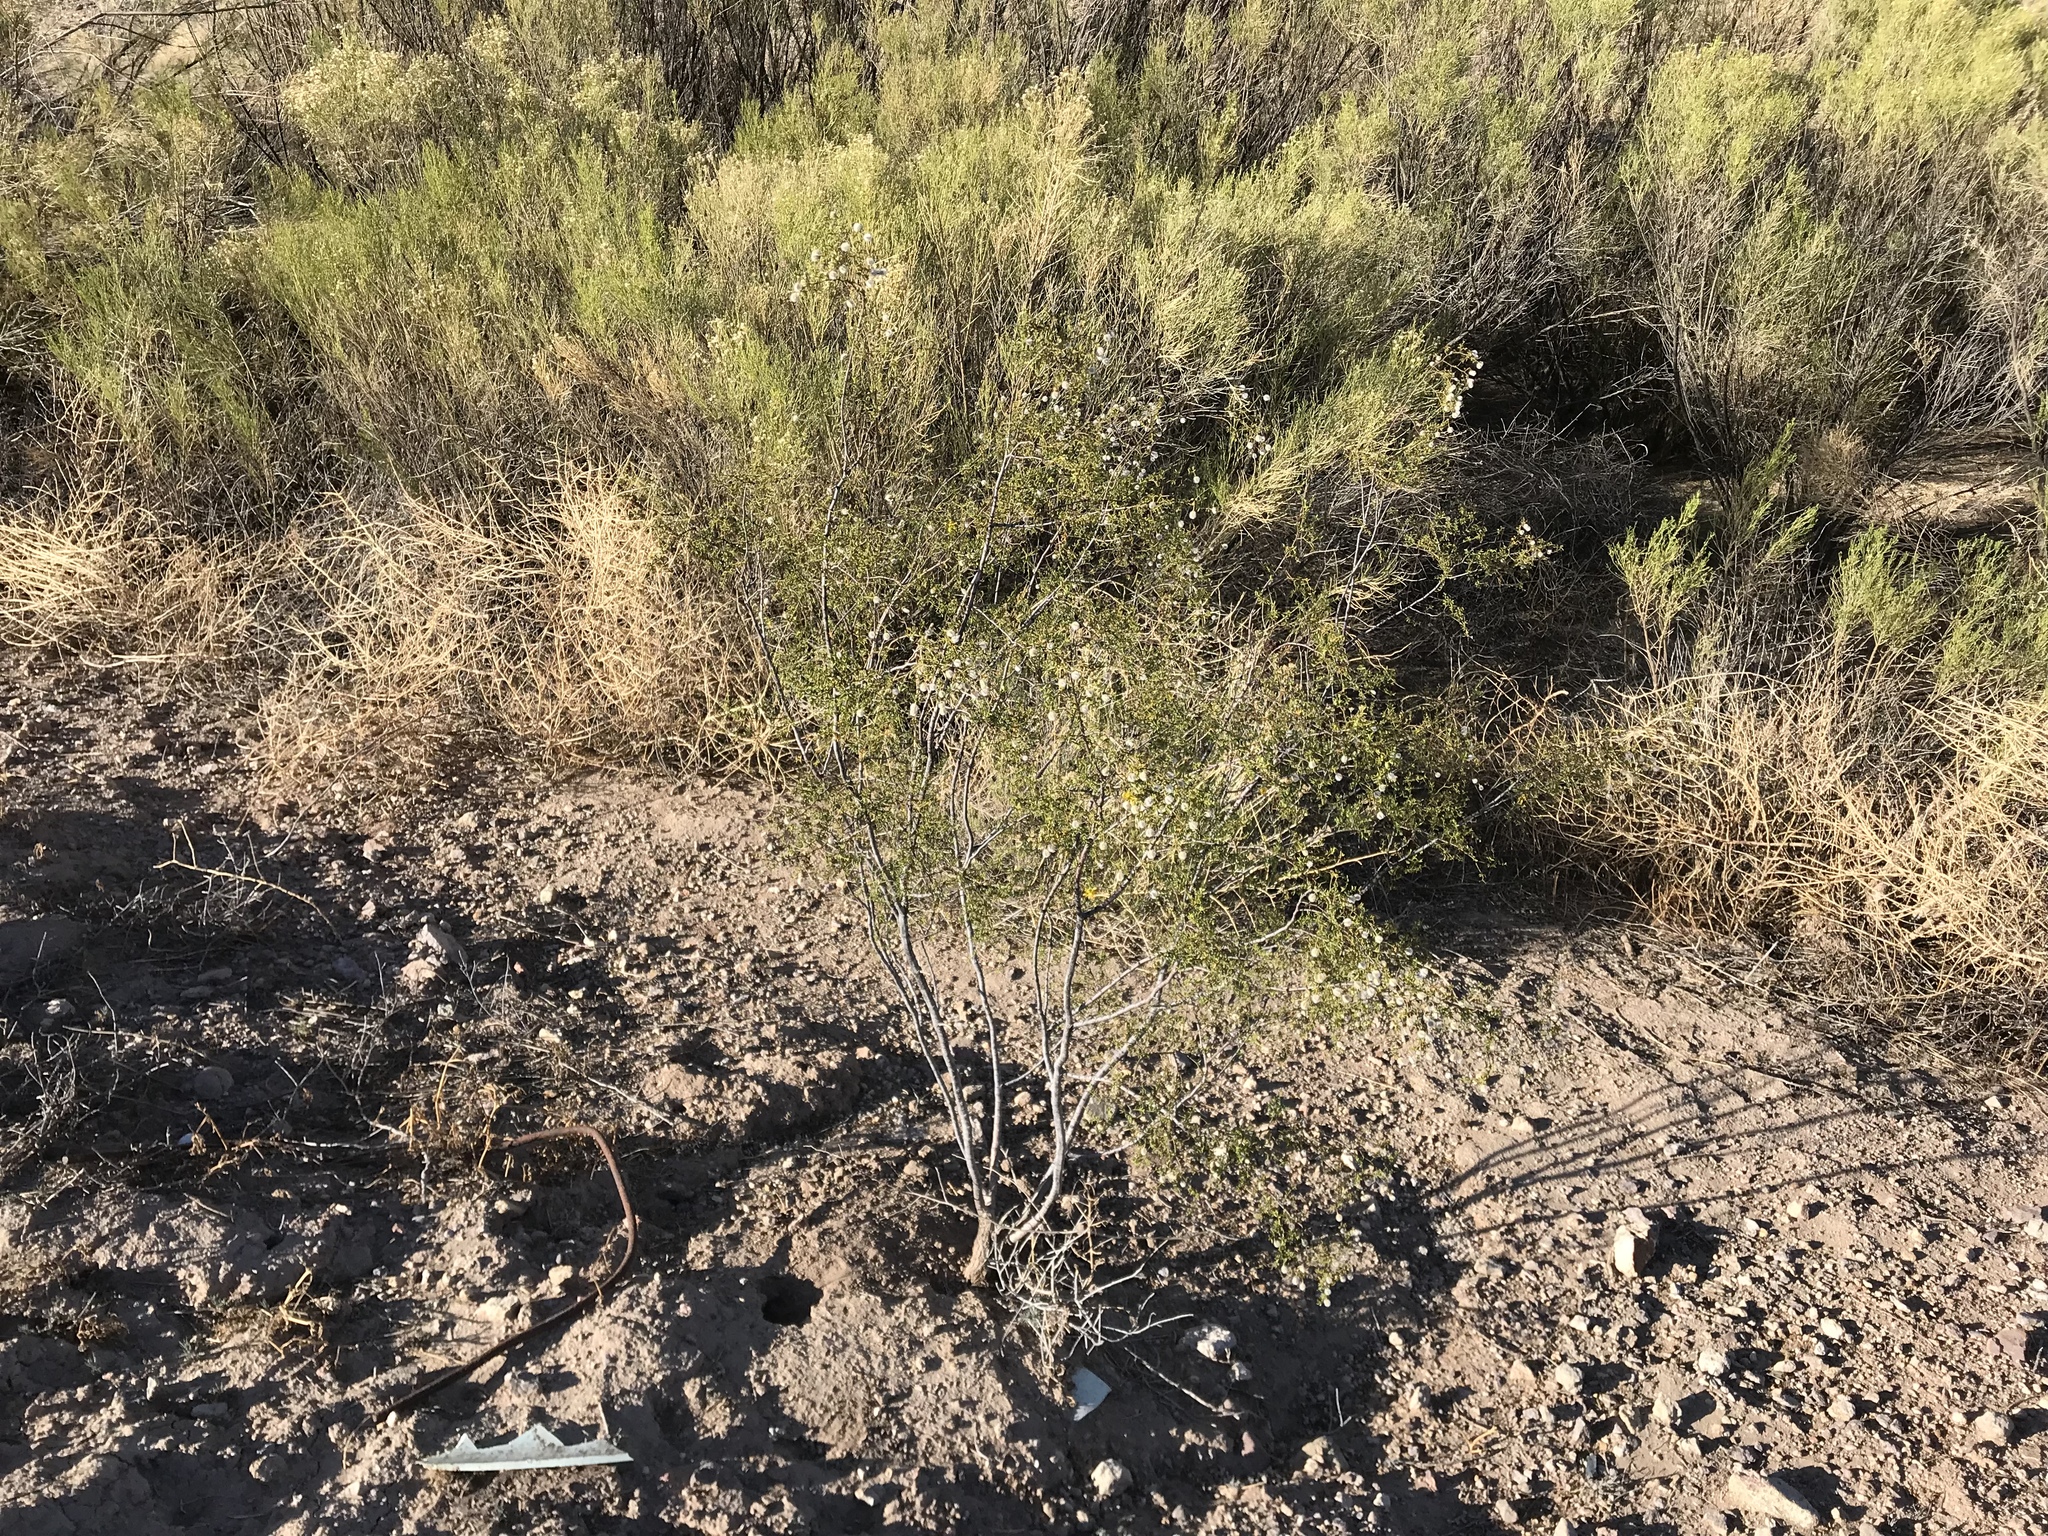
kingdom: Plantae
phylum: Tracheophyta
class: Magnoliopsida
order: Zygophyllales
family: Zygophyllaceae
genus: Larrea
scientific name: Larrea tridentata
